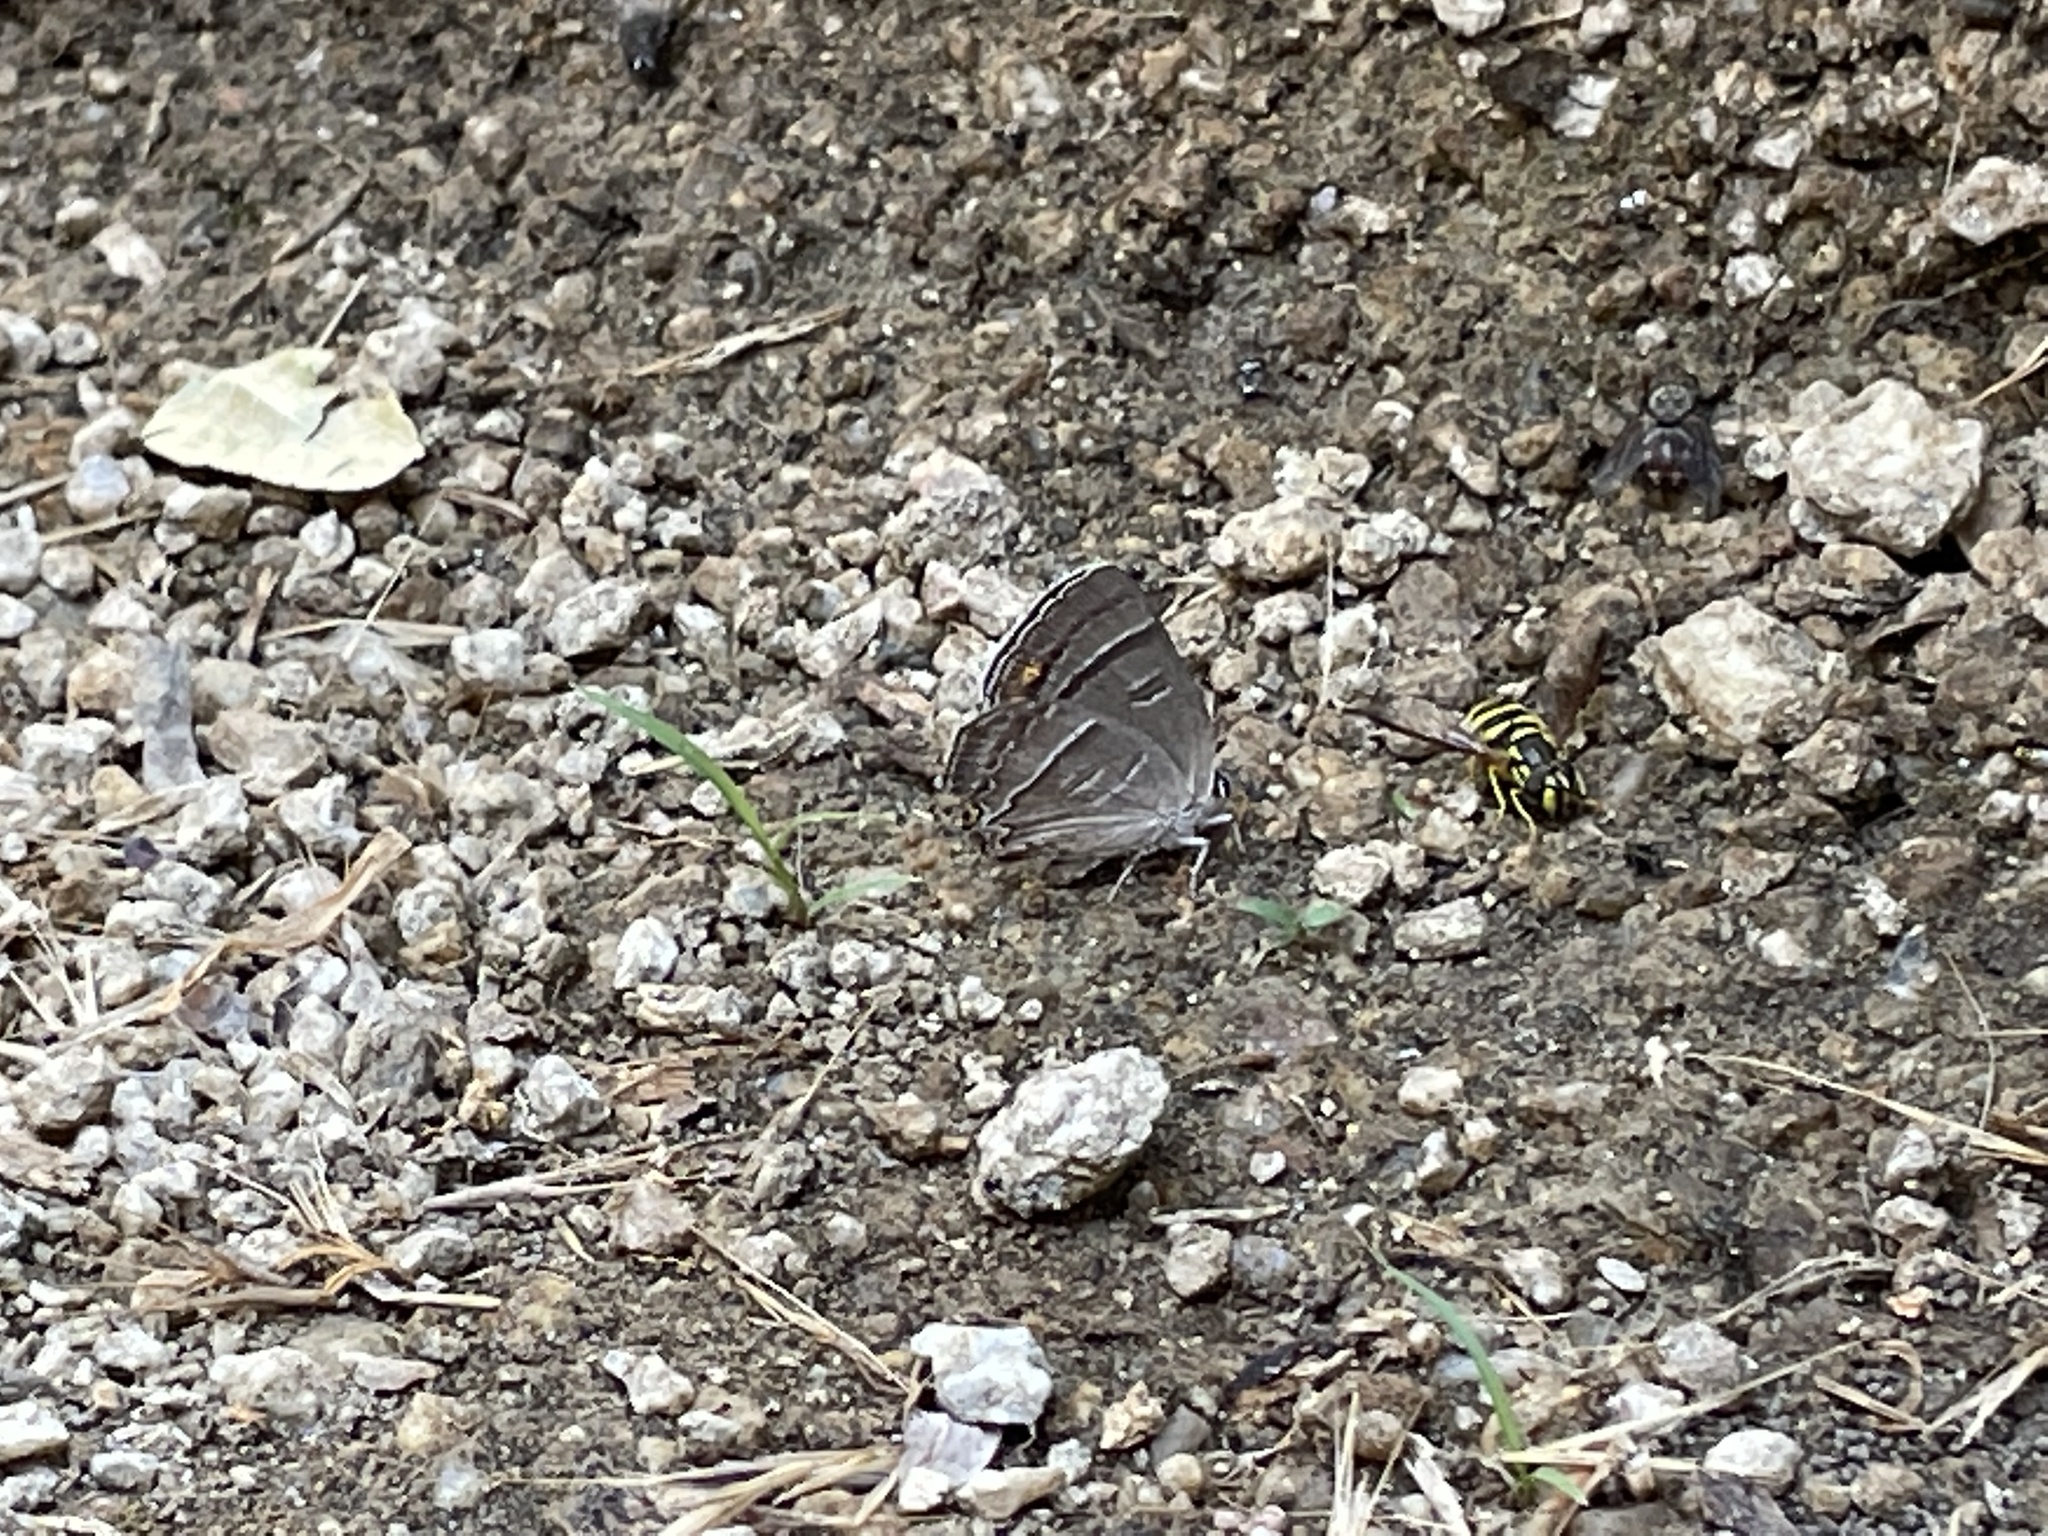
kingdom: Animalia
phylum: Arthropoda
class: Insecta
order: Lepidoptera
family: Lycaenidae
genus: Hypaurotis
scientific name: Hypaurotis crysalus
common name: Colorado hairstreak
